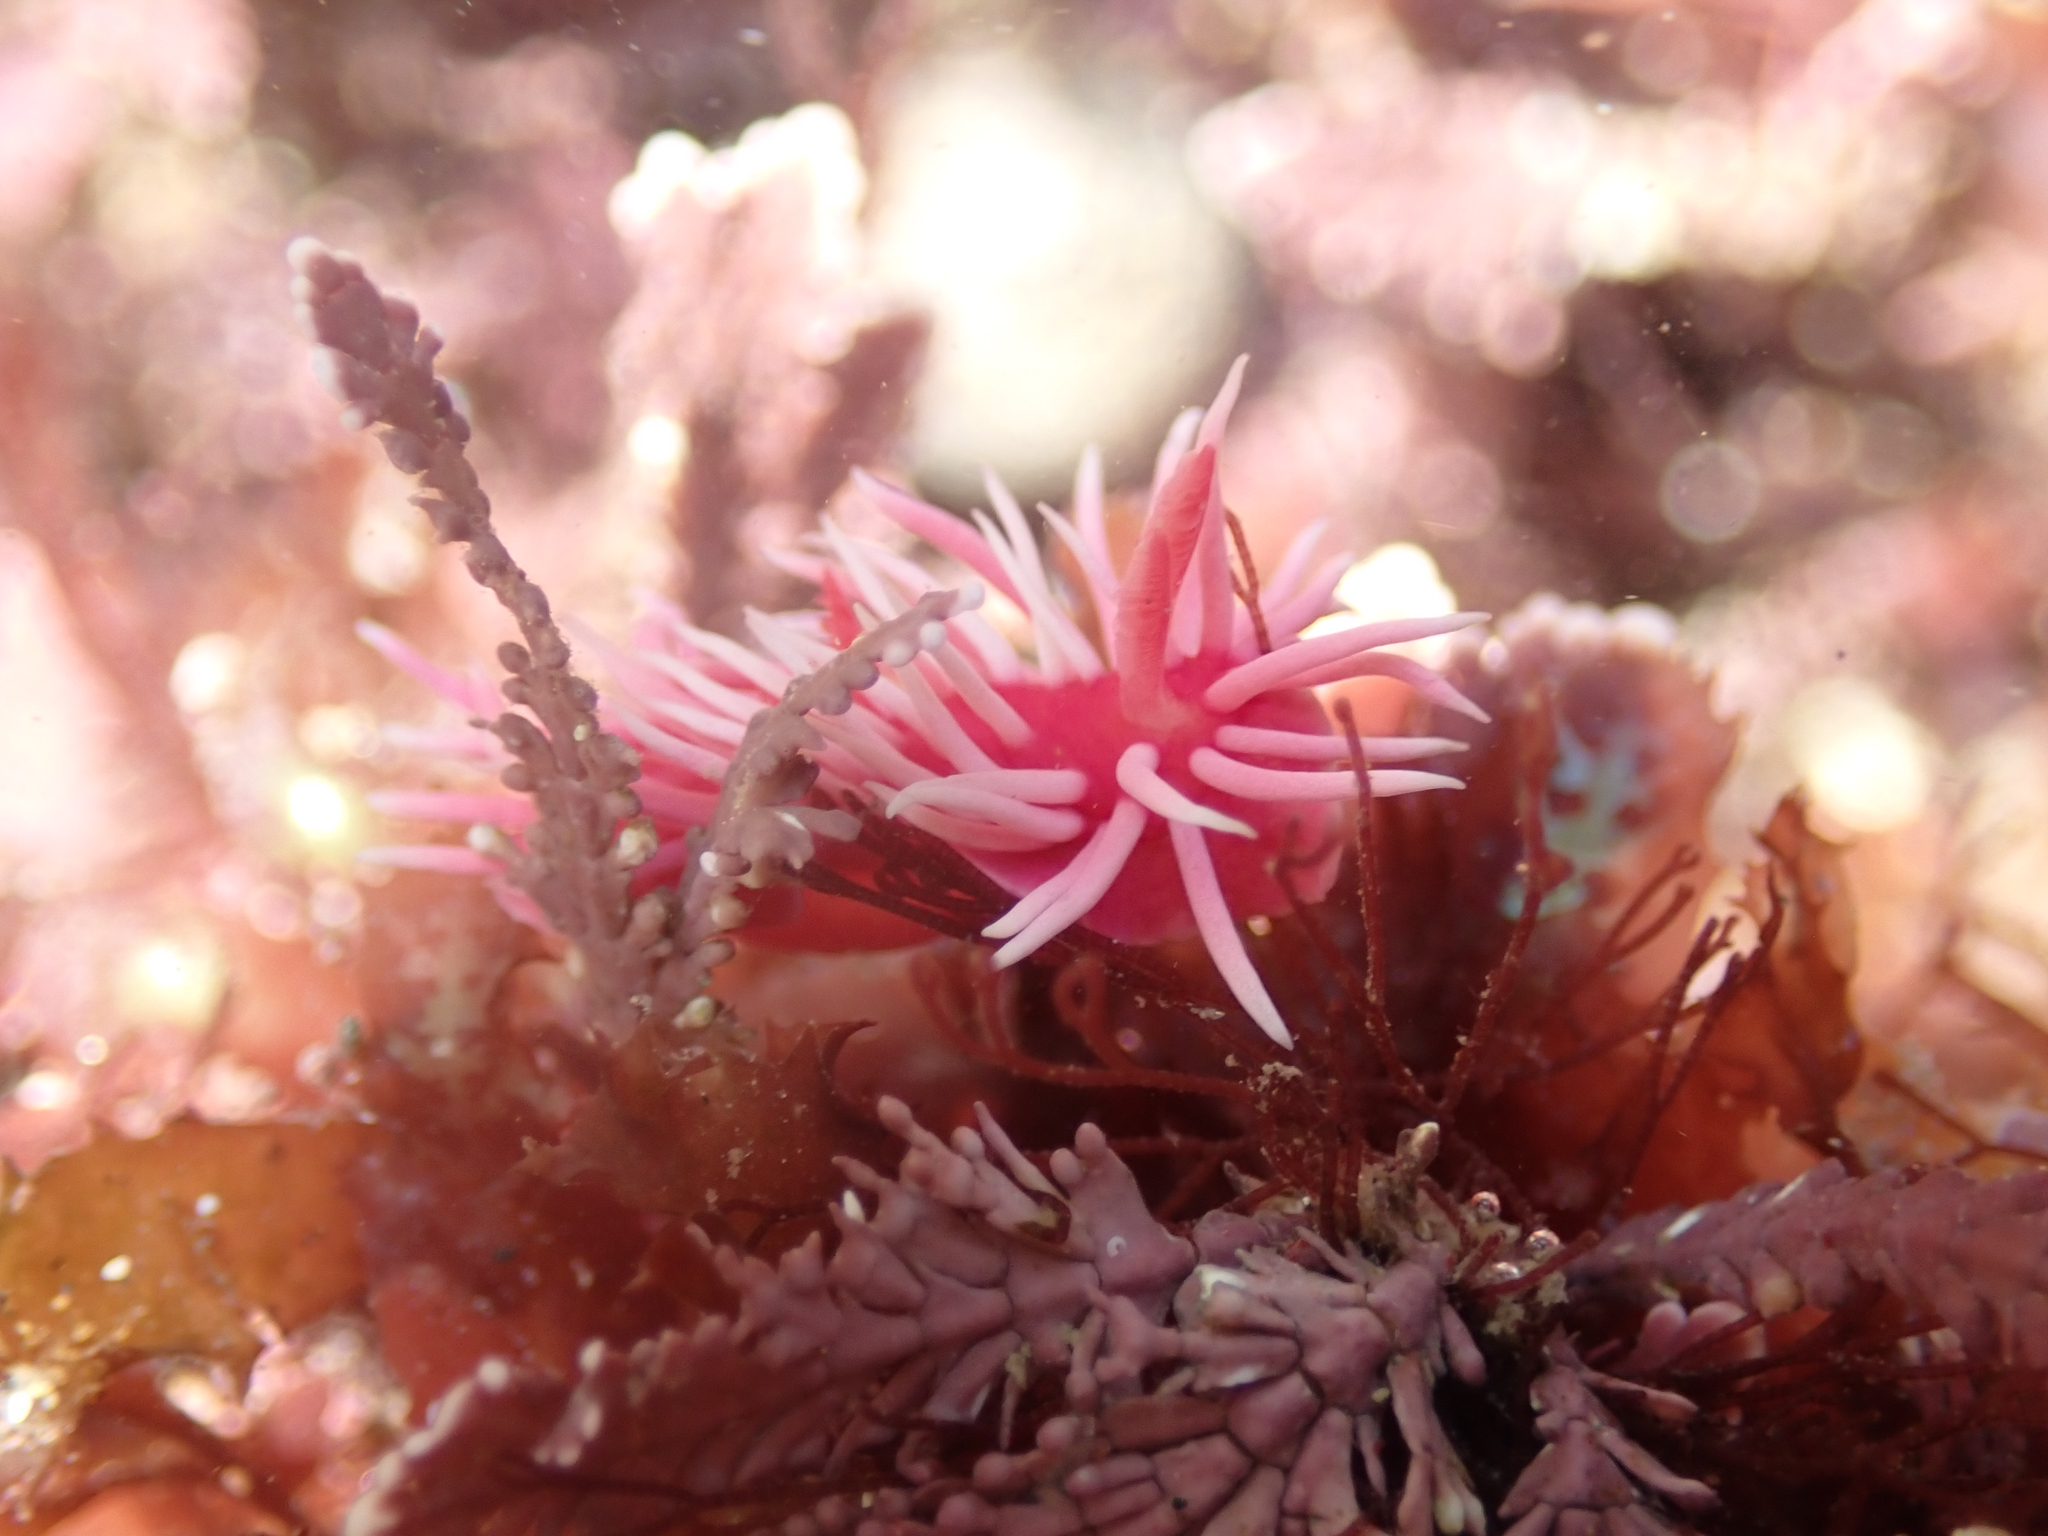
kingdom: Animalia
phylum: Mollusca
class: Gastropoda
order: Nudibranchia
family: Goniodorididae
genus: Okenia
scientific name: Okenia
